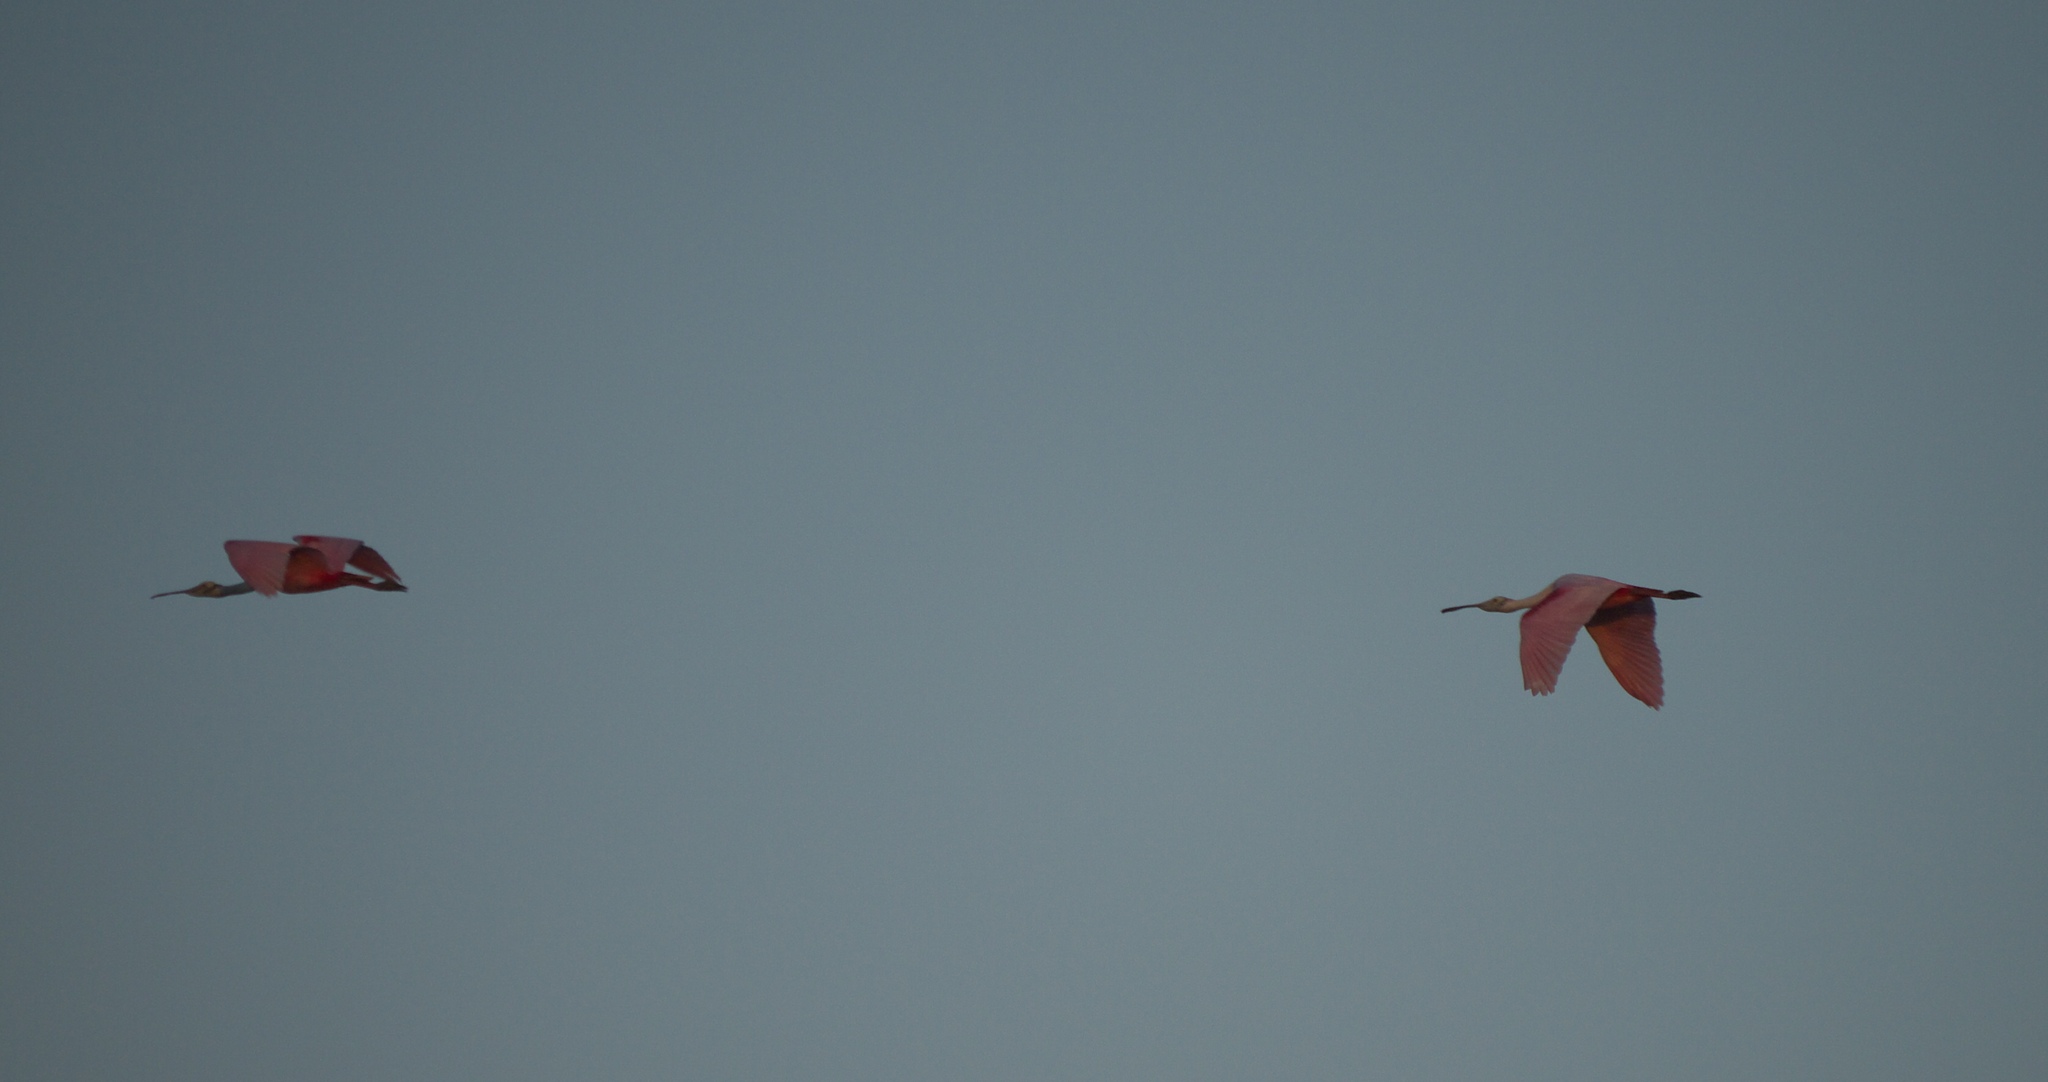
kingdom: Animalia
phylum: Chordata
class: Aves
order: Pelecaniformes
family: Threskiornithidae
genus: Platalea
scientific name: Platalea ajaja
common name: Roseate spoonbill
